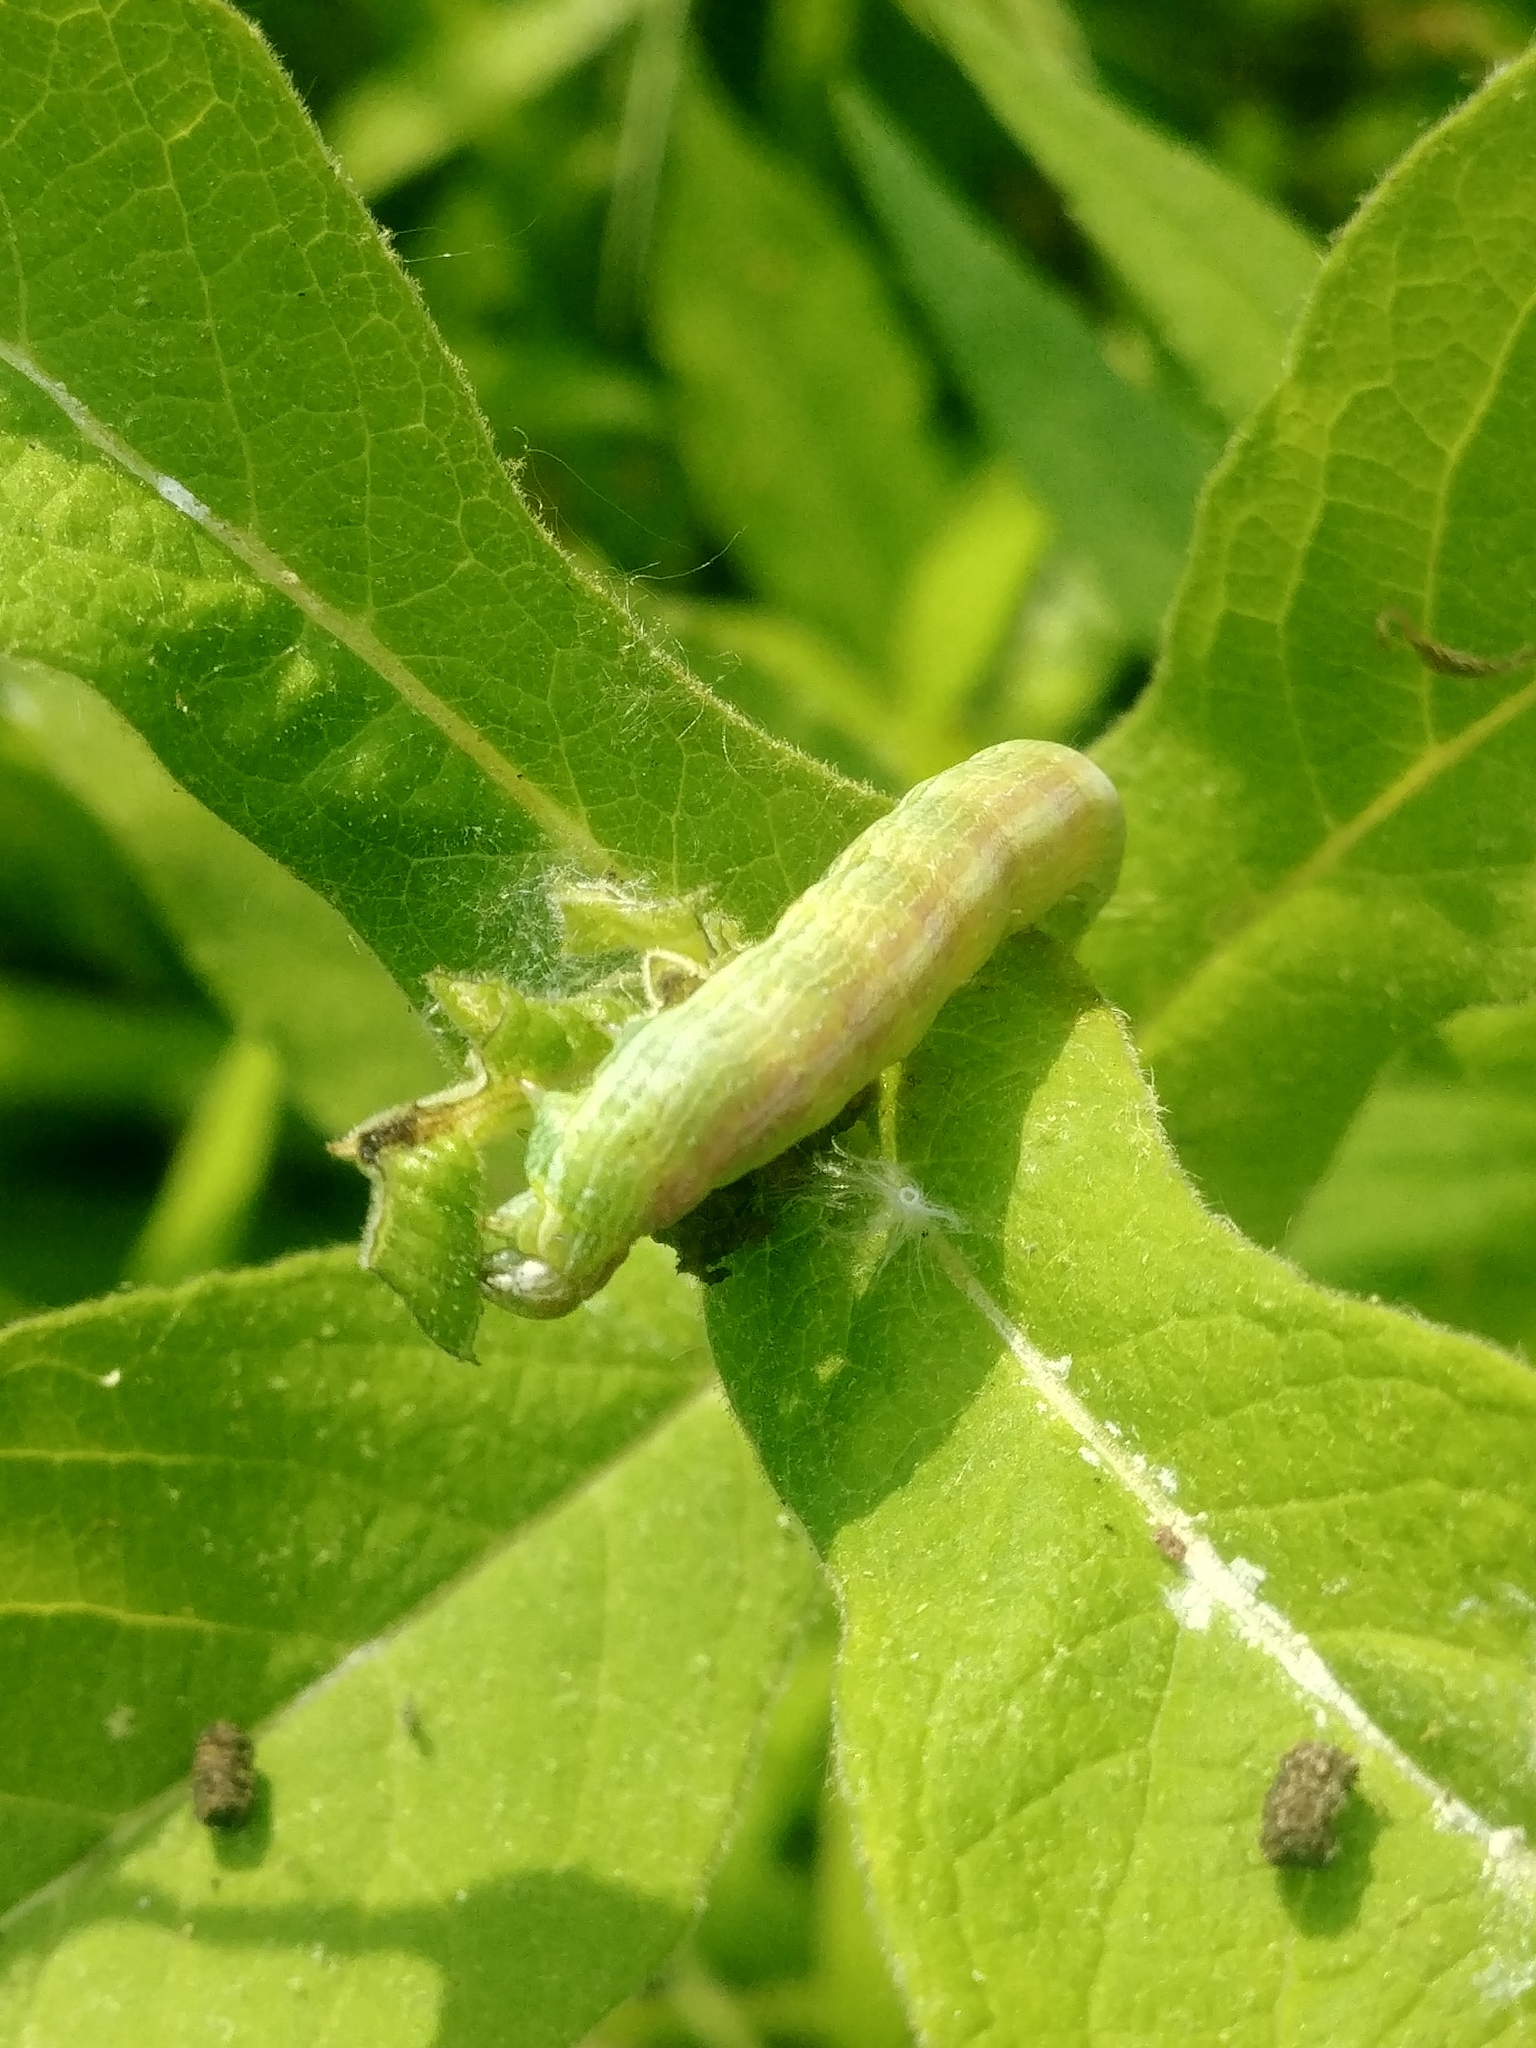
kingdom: Animalia
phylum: Arthropoda
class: Insecta
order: Lepidoptera
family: Noctuidae
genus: Sympistis
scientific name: Sympistis forbesi
